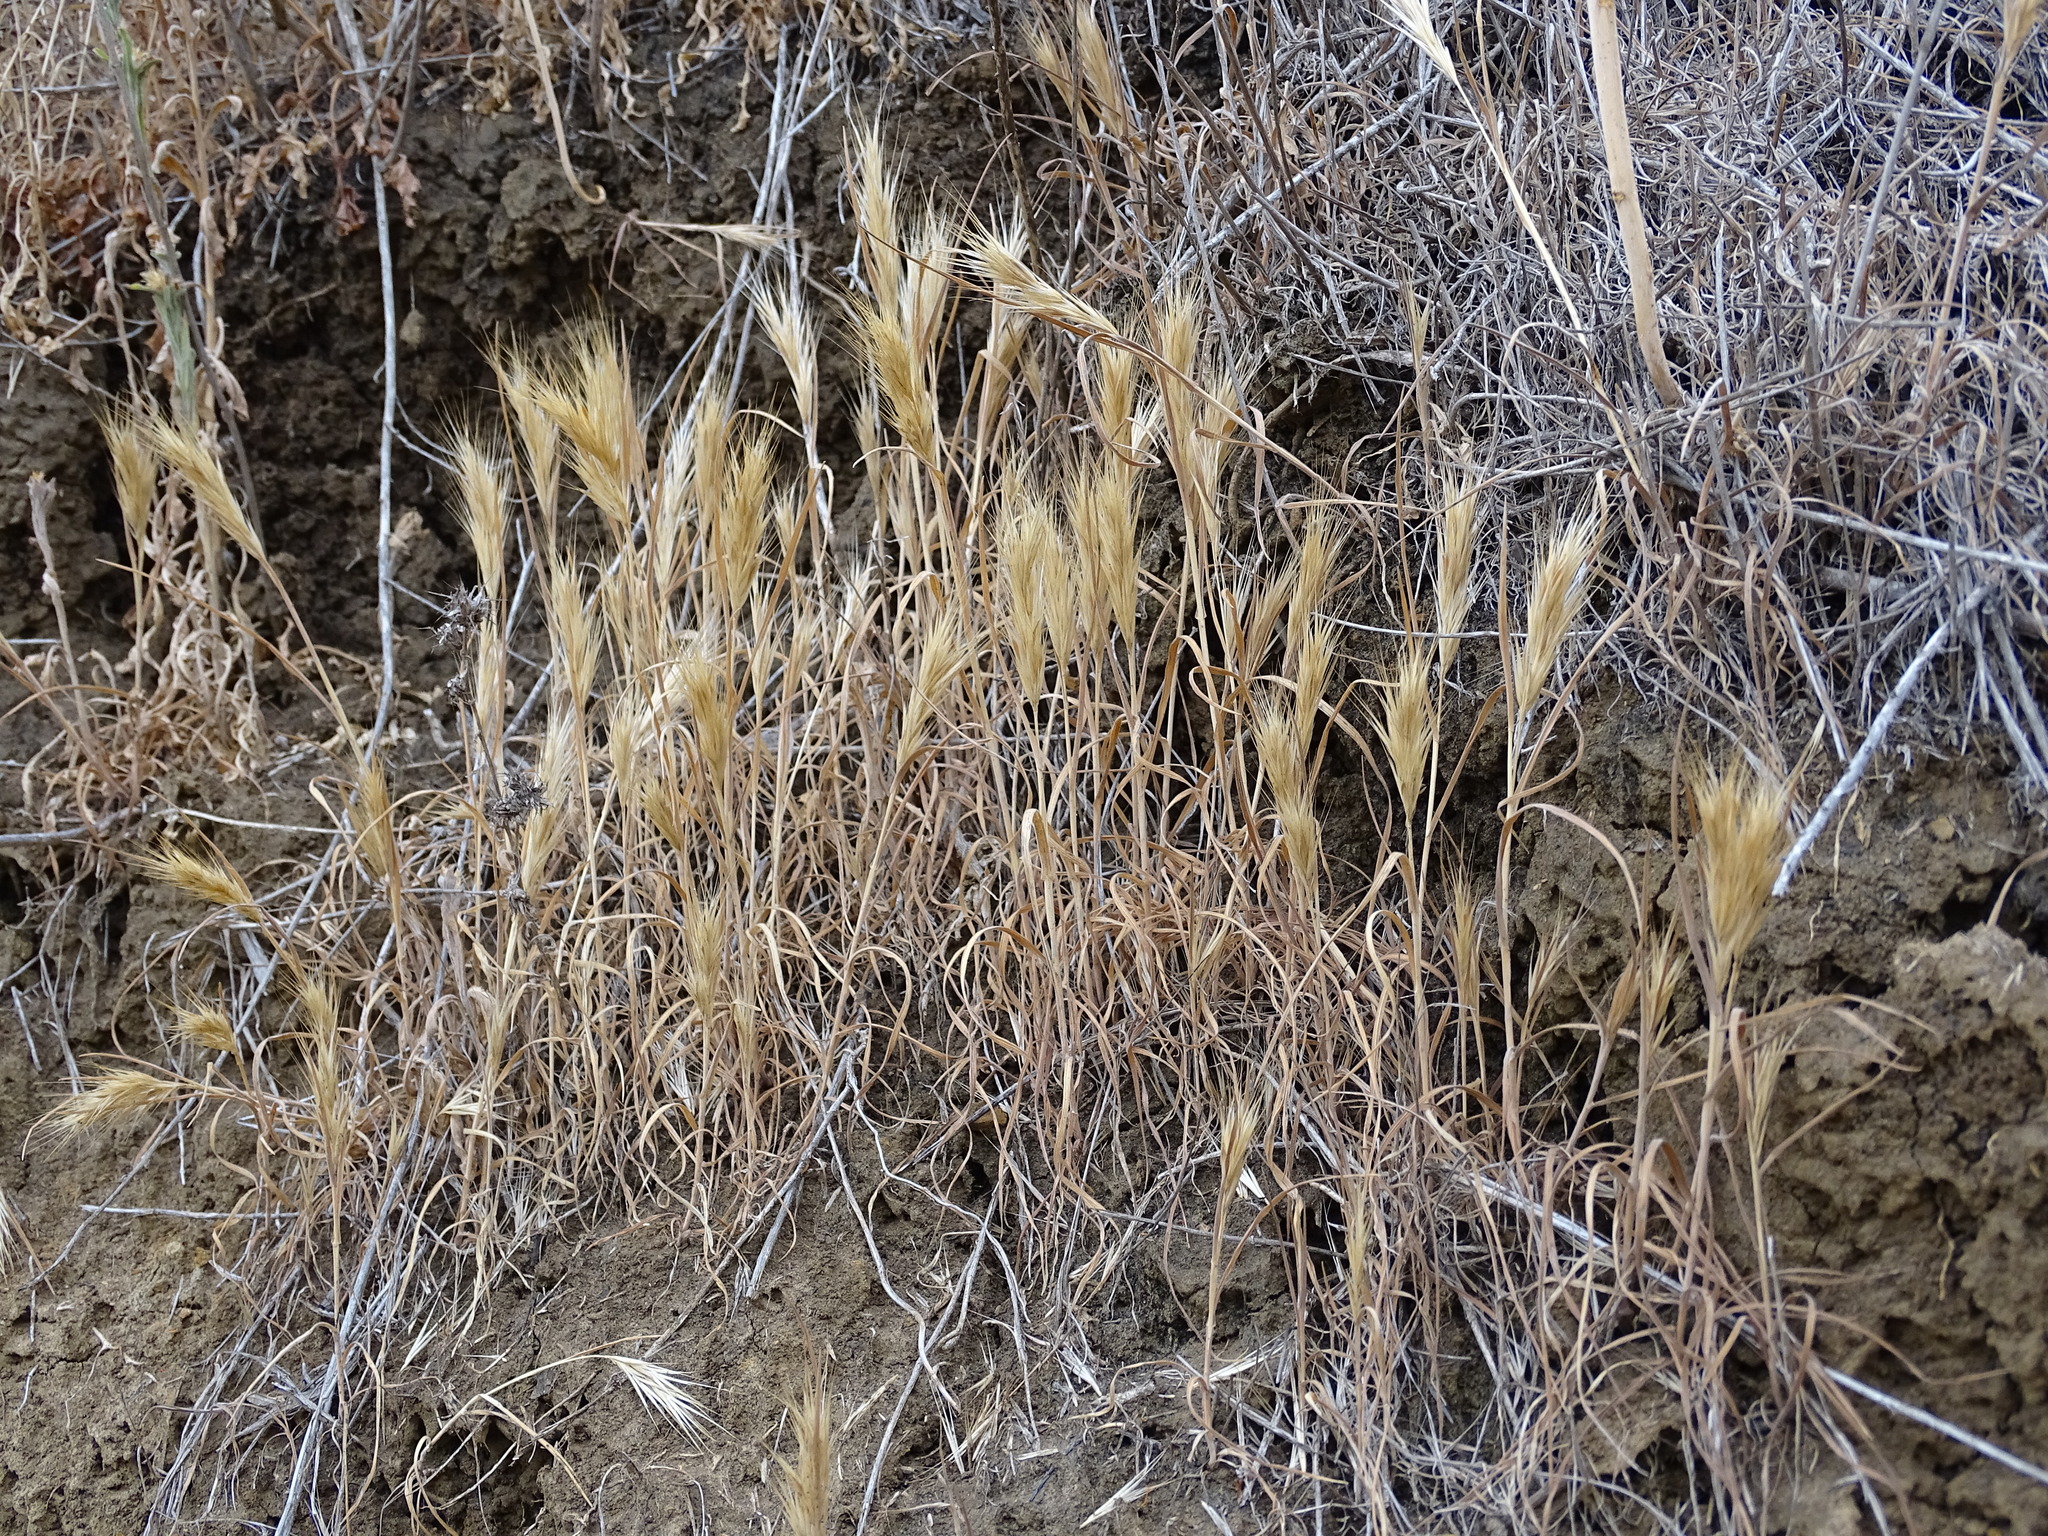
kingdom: Plantae
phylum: Tracheophyta
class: Liliopsida
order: Poales
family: Poaceae
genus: Bromus
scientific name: Bromus madritensis
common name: Compact brome
